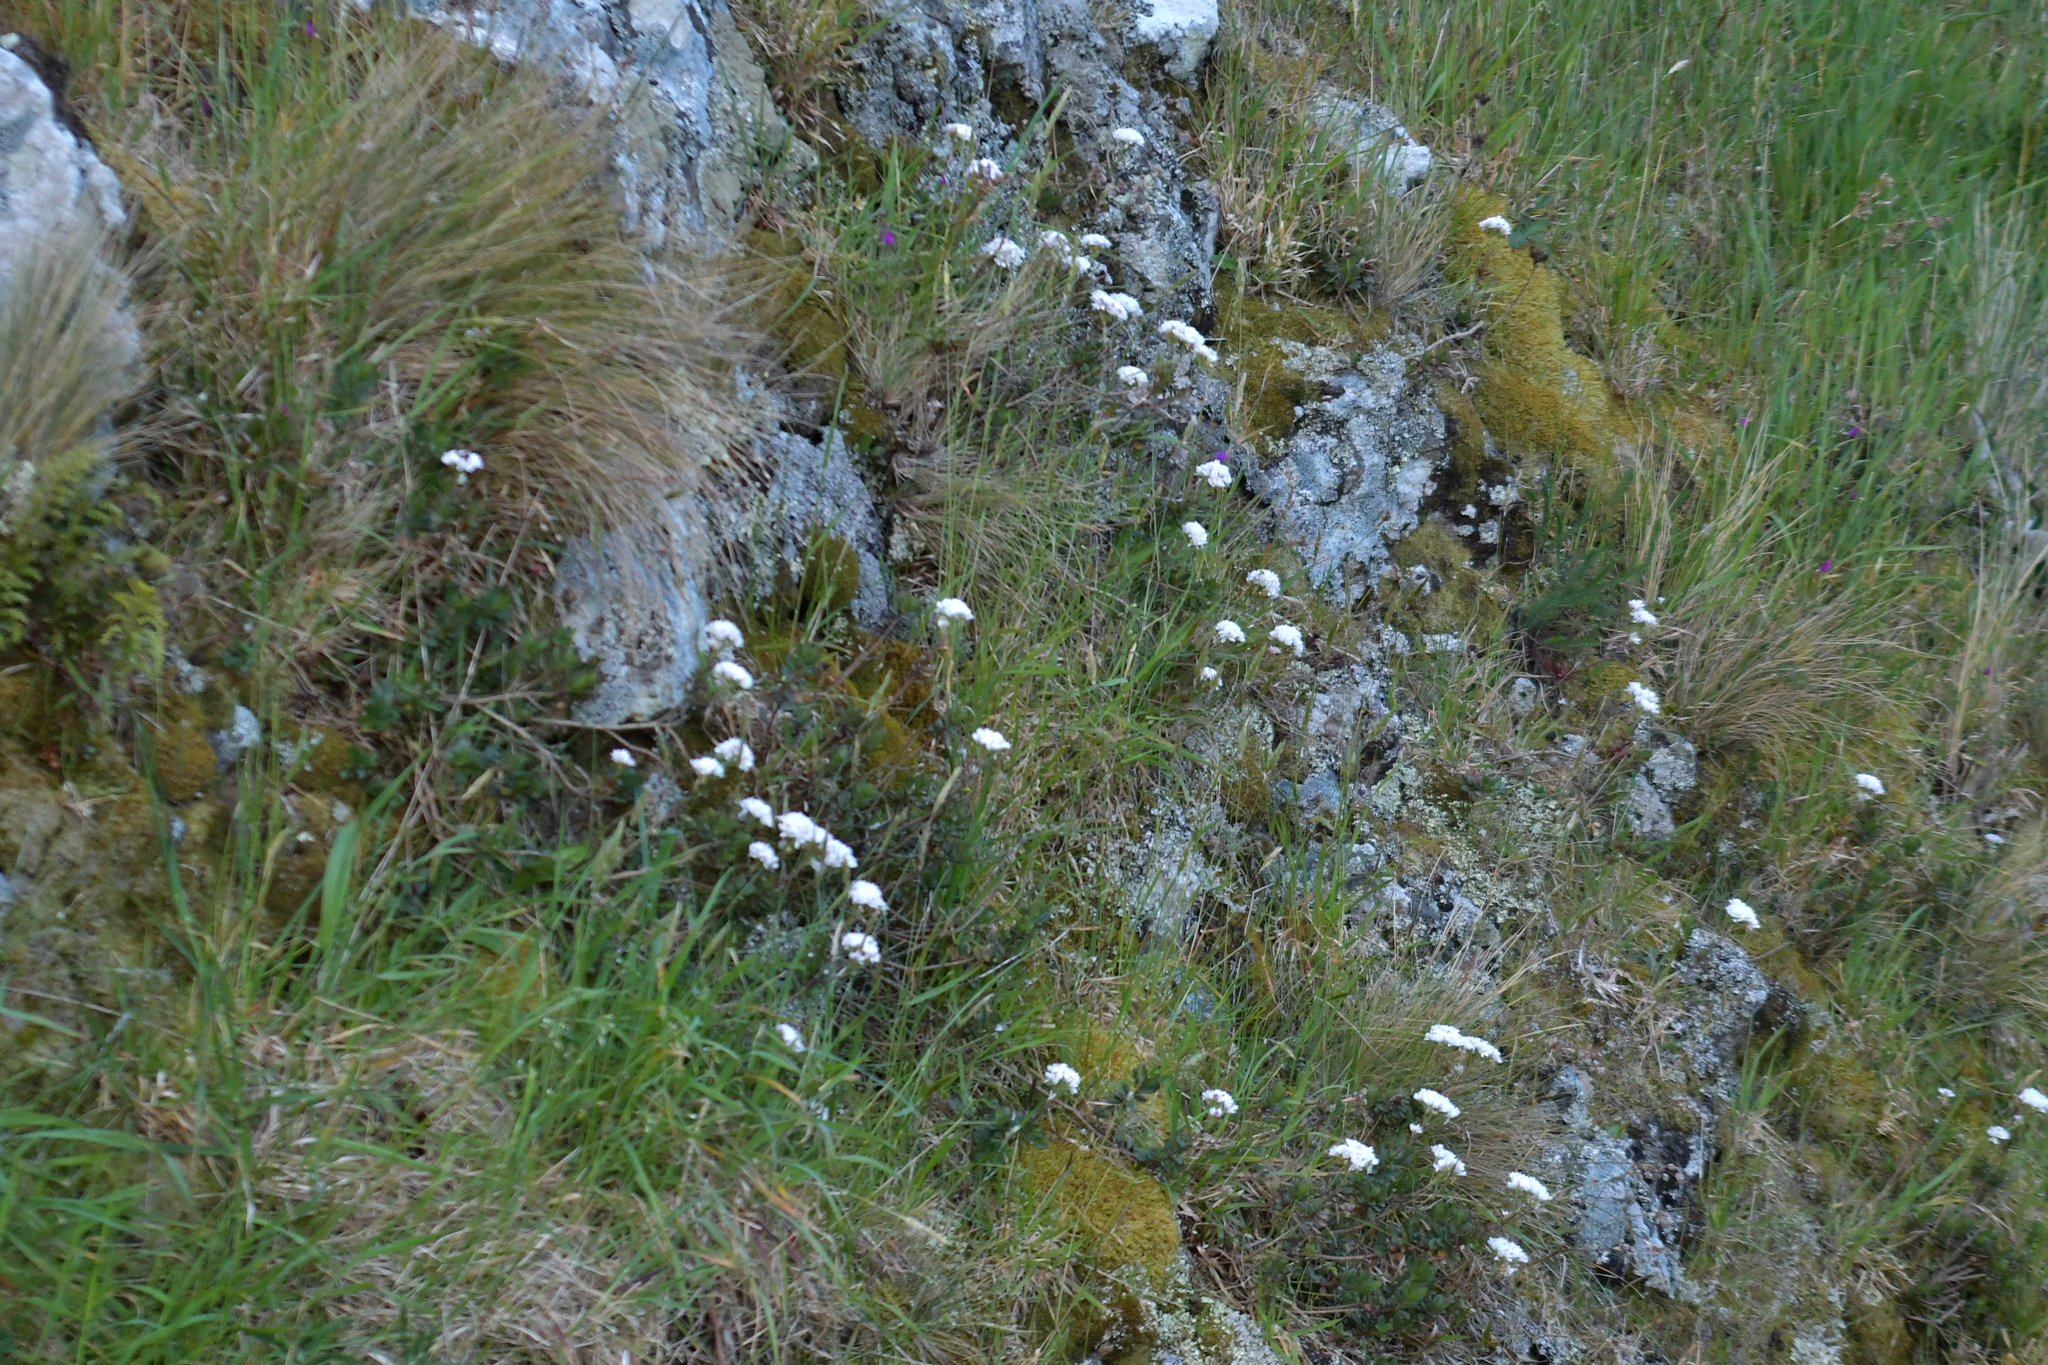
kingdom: Plantae
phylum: Tracheophyta
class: Magnoliopsida
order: Lamiales
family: Plantaginaceae
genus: Veronica
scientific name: Veronica lavaudiana
